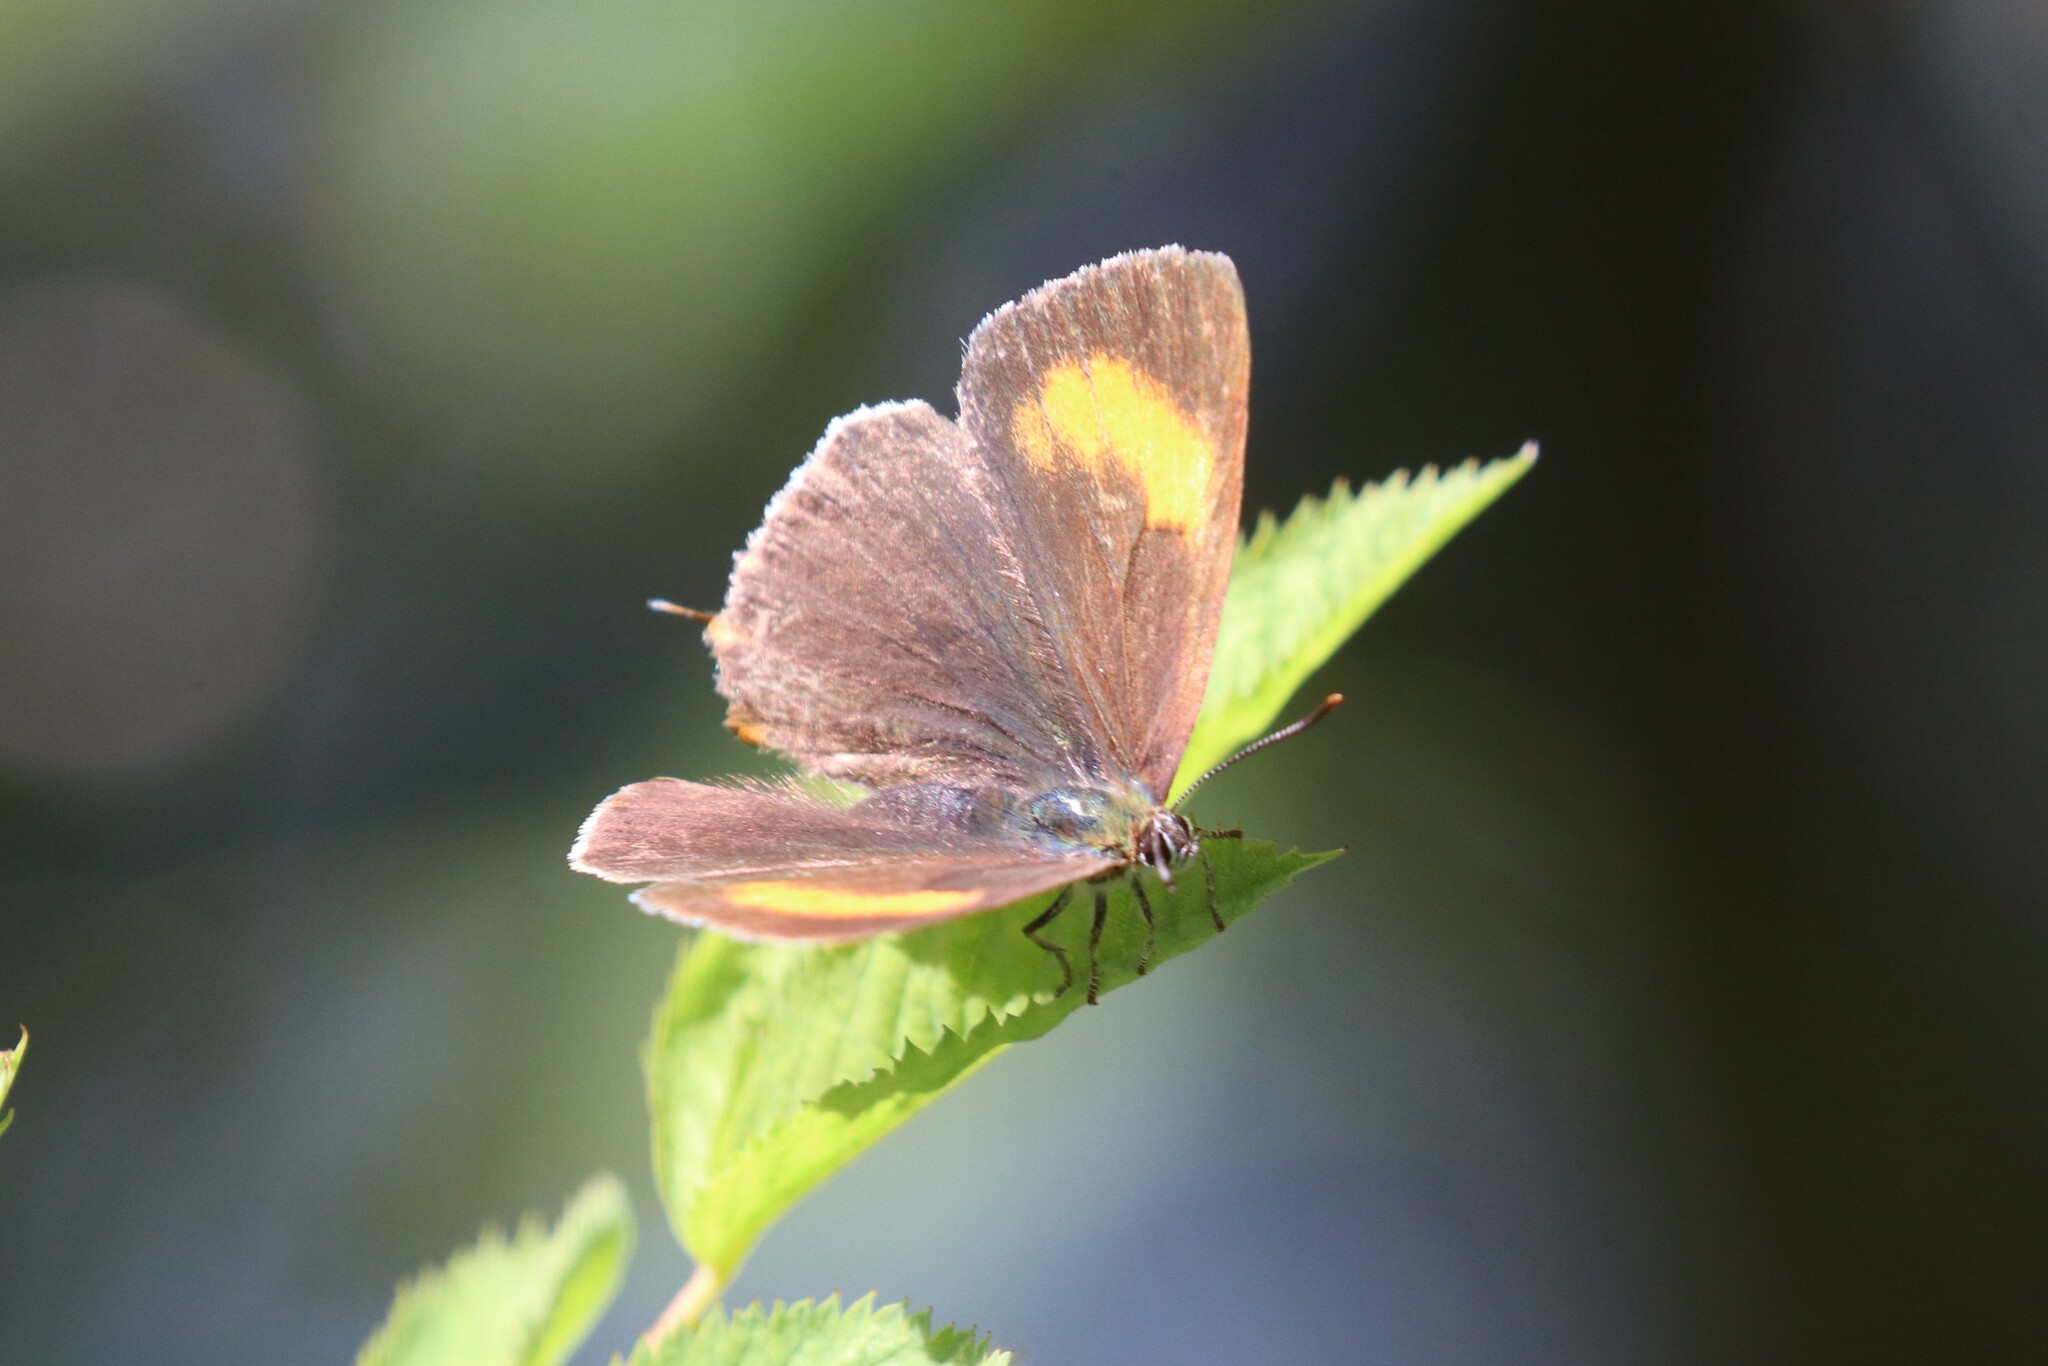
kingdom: Animalia
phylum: Arthropoda
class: Insecta
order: Lepidoptera
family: Lycaenidae
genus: Thecla
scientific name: Thecla betulae
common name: Brown hairstreak
